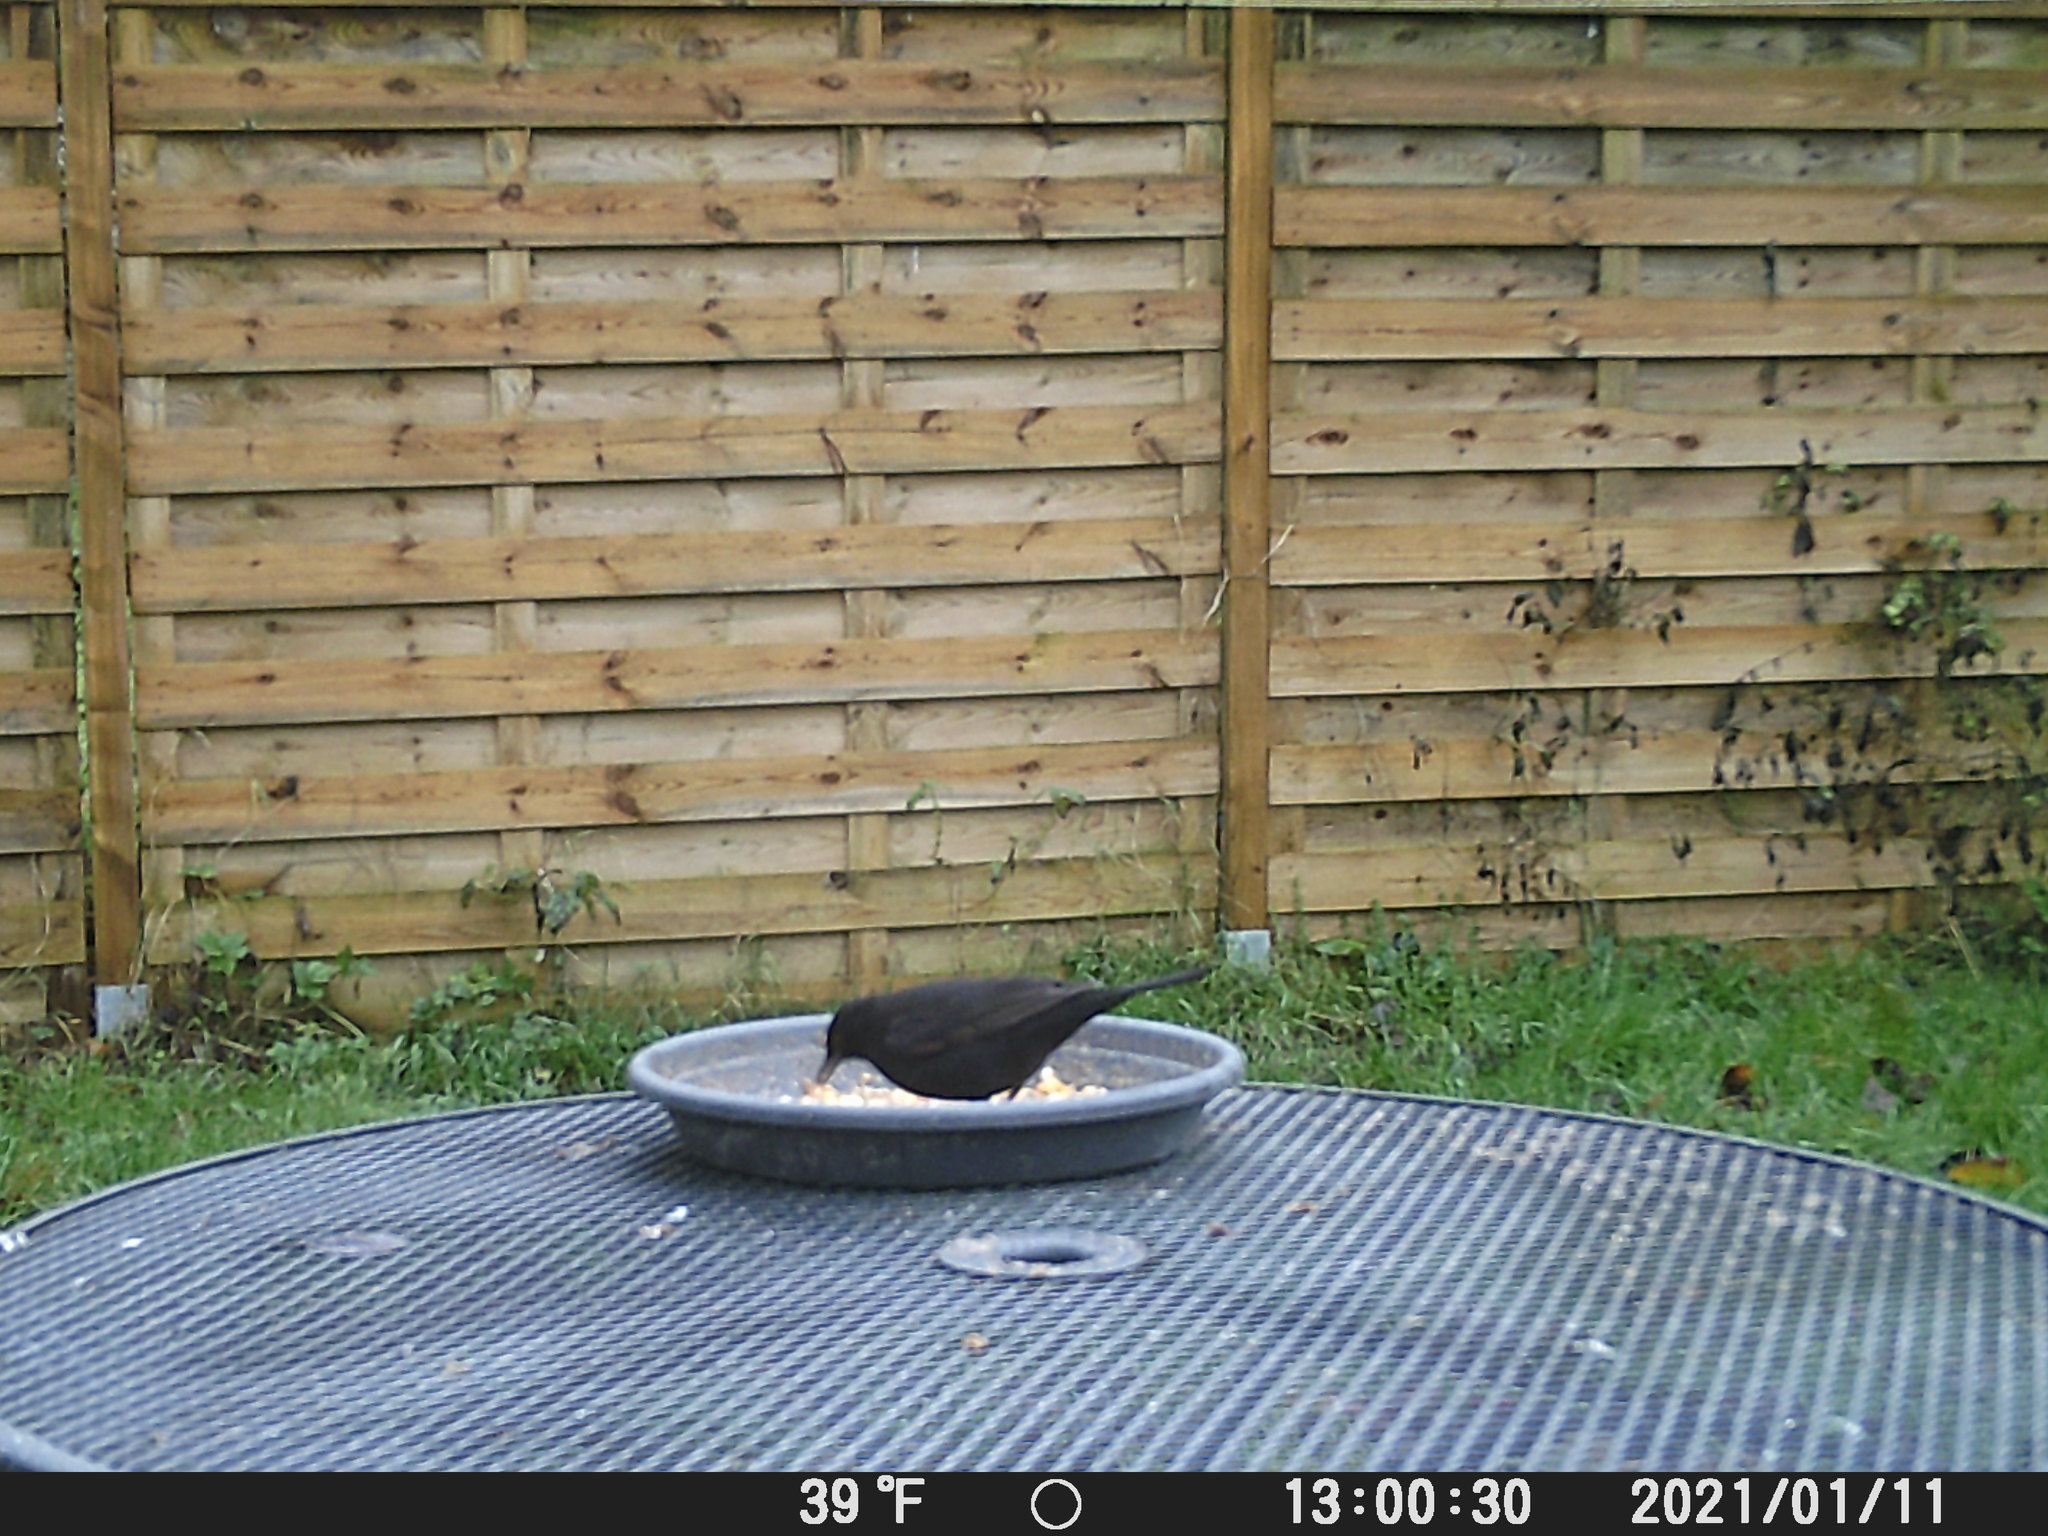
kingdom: Animalia
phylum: Chordata
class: Aves
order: Passeriformes
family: Turdidae
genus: Turdus
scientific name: Turdus merula
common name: Common blackbird
